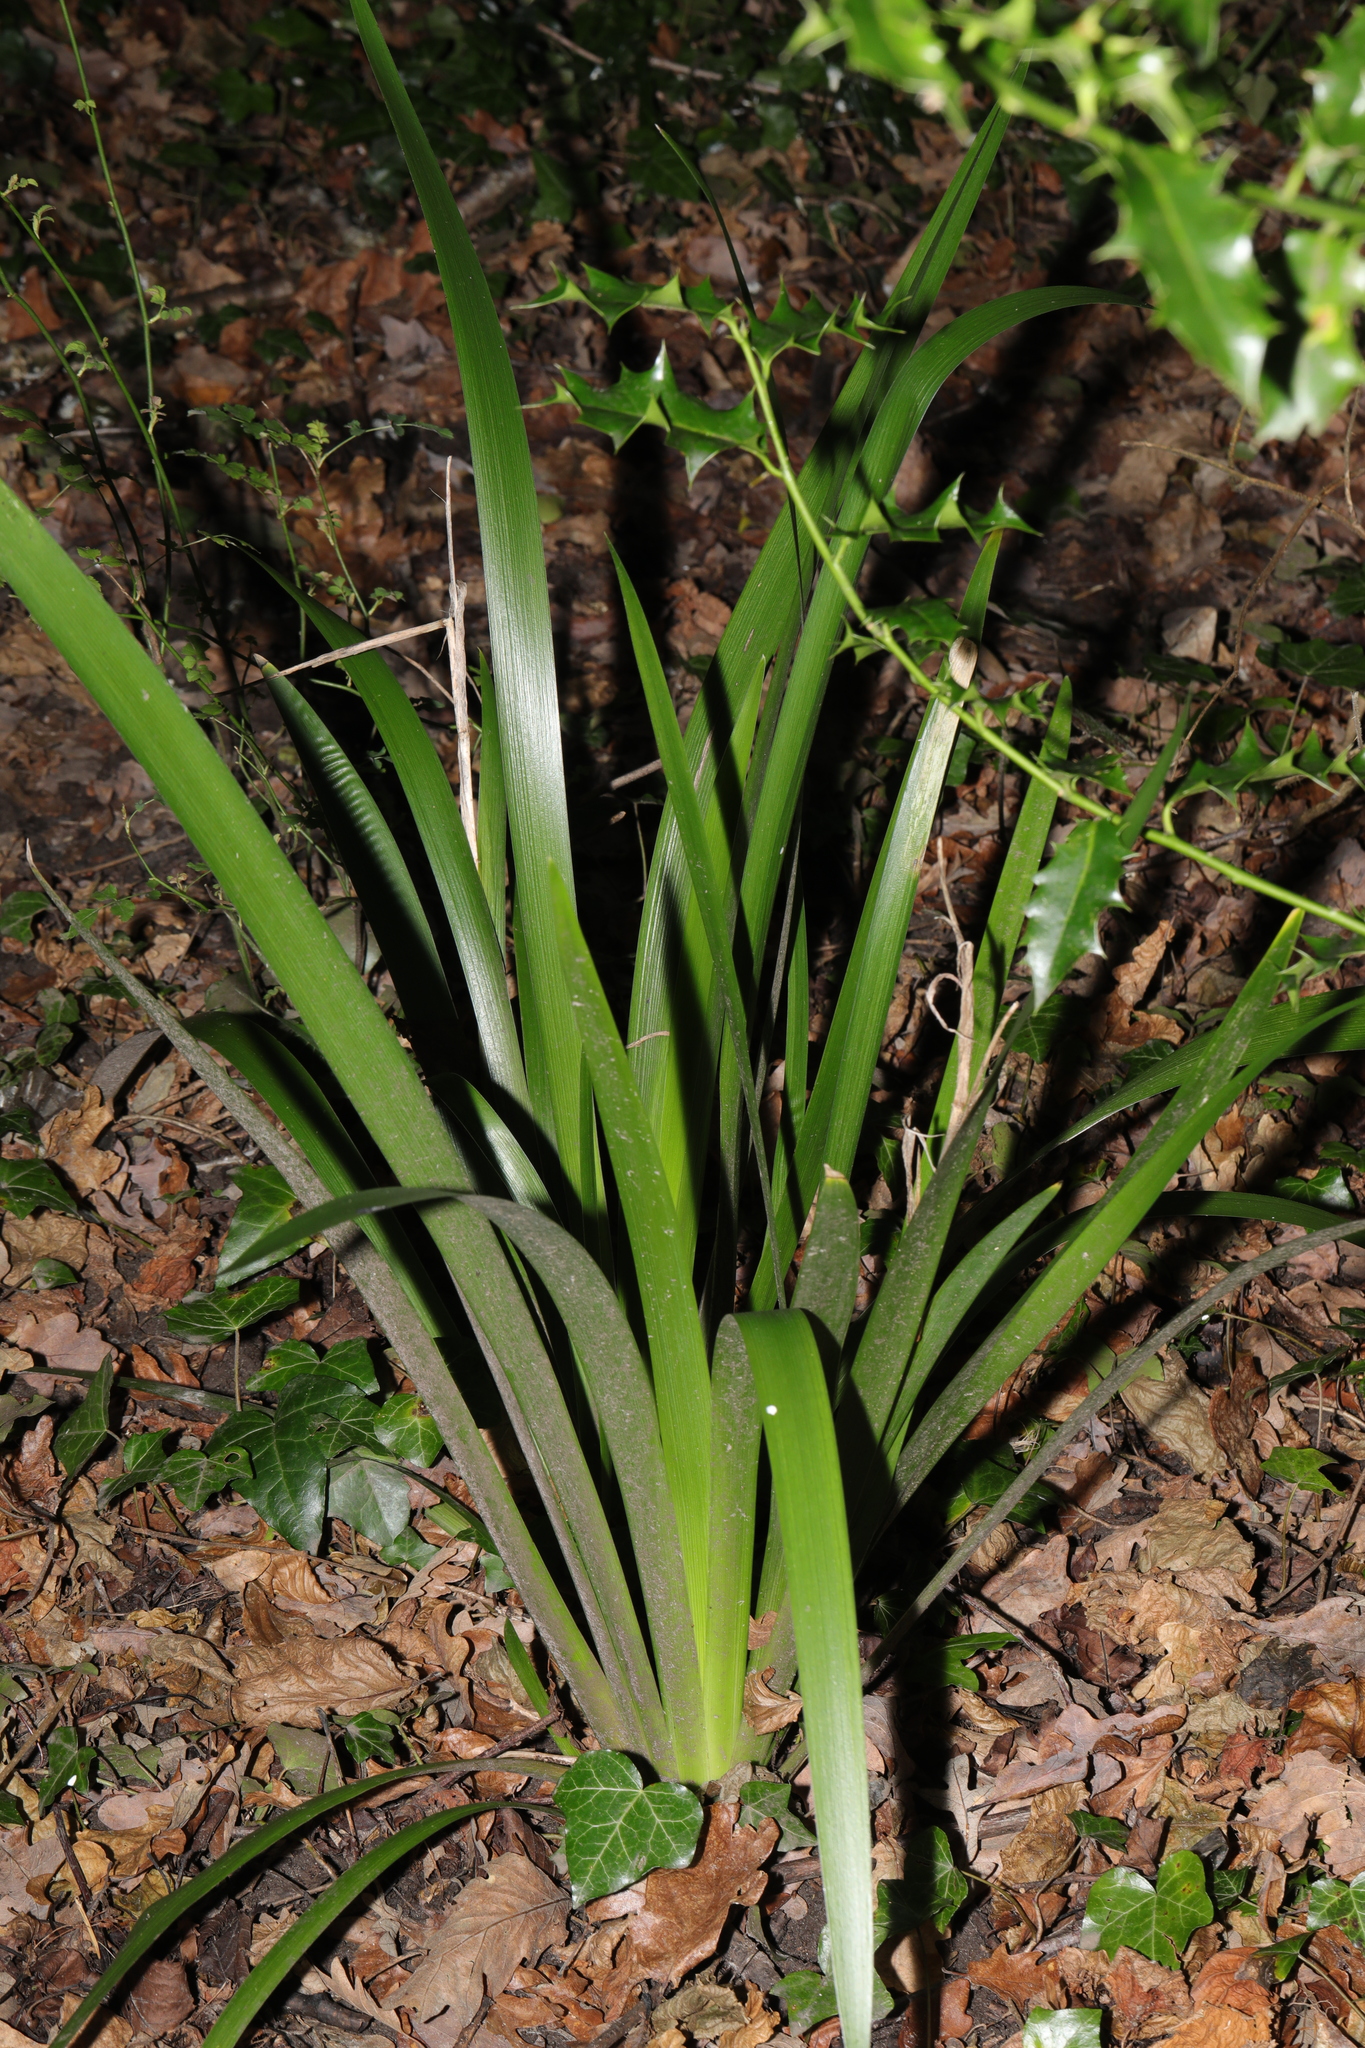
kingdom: Plantae
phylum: Tracheophyta
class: Liliopsida
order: Asparagales
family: Iridaceae
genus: Iris
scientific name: Iris foetidissima
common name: Stinking iris
